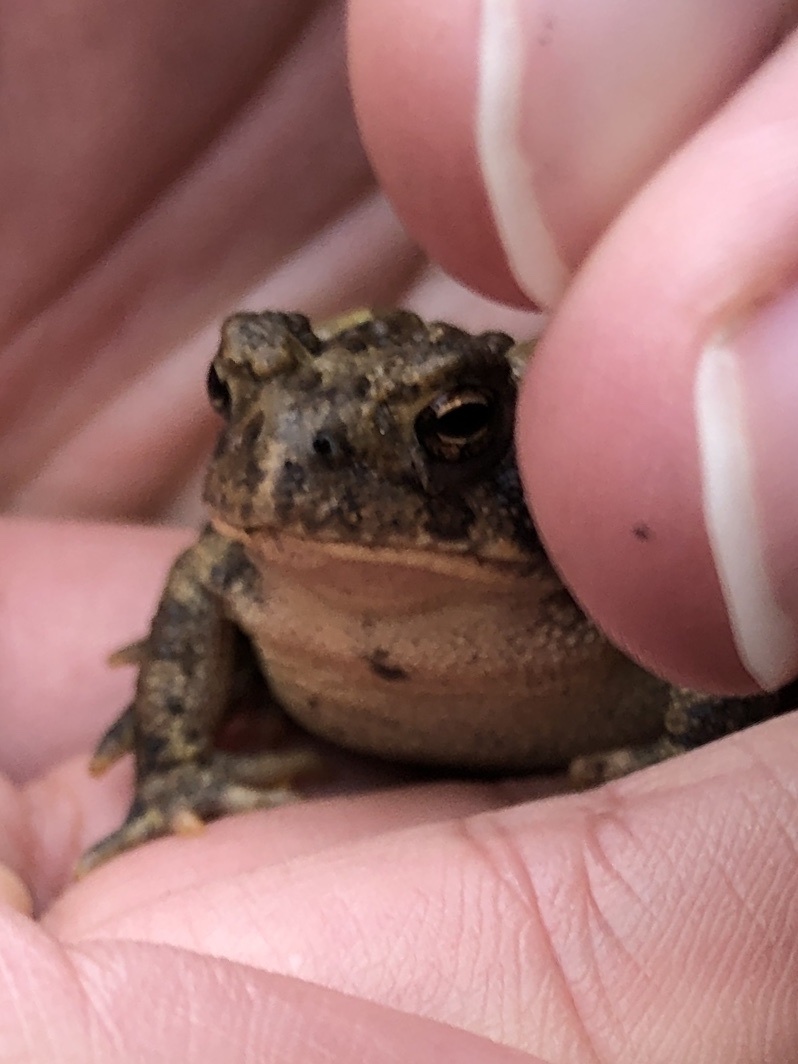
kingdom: Animalia
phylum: Chordata
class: Amphibia
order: Anura
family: Bufonidae
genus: Anaxyrus
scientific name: Anaxyrus americanus
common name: American toad
